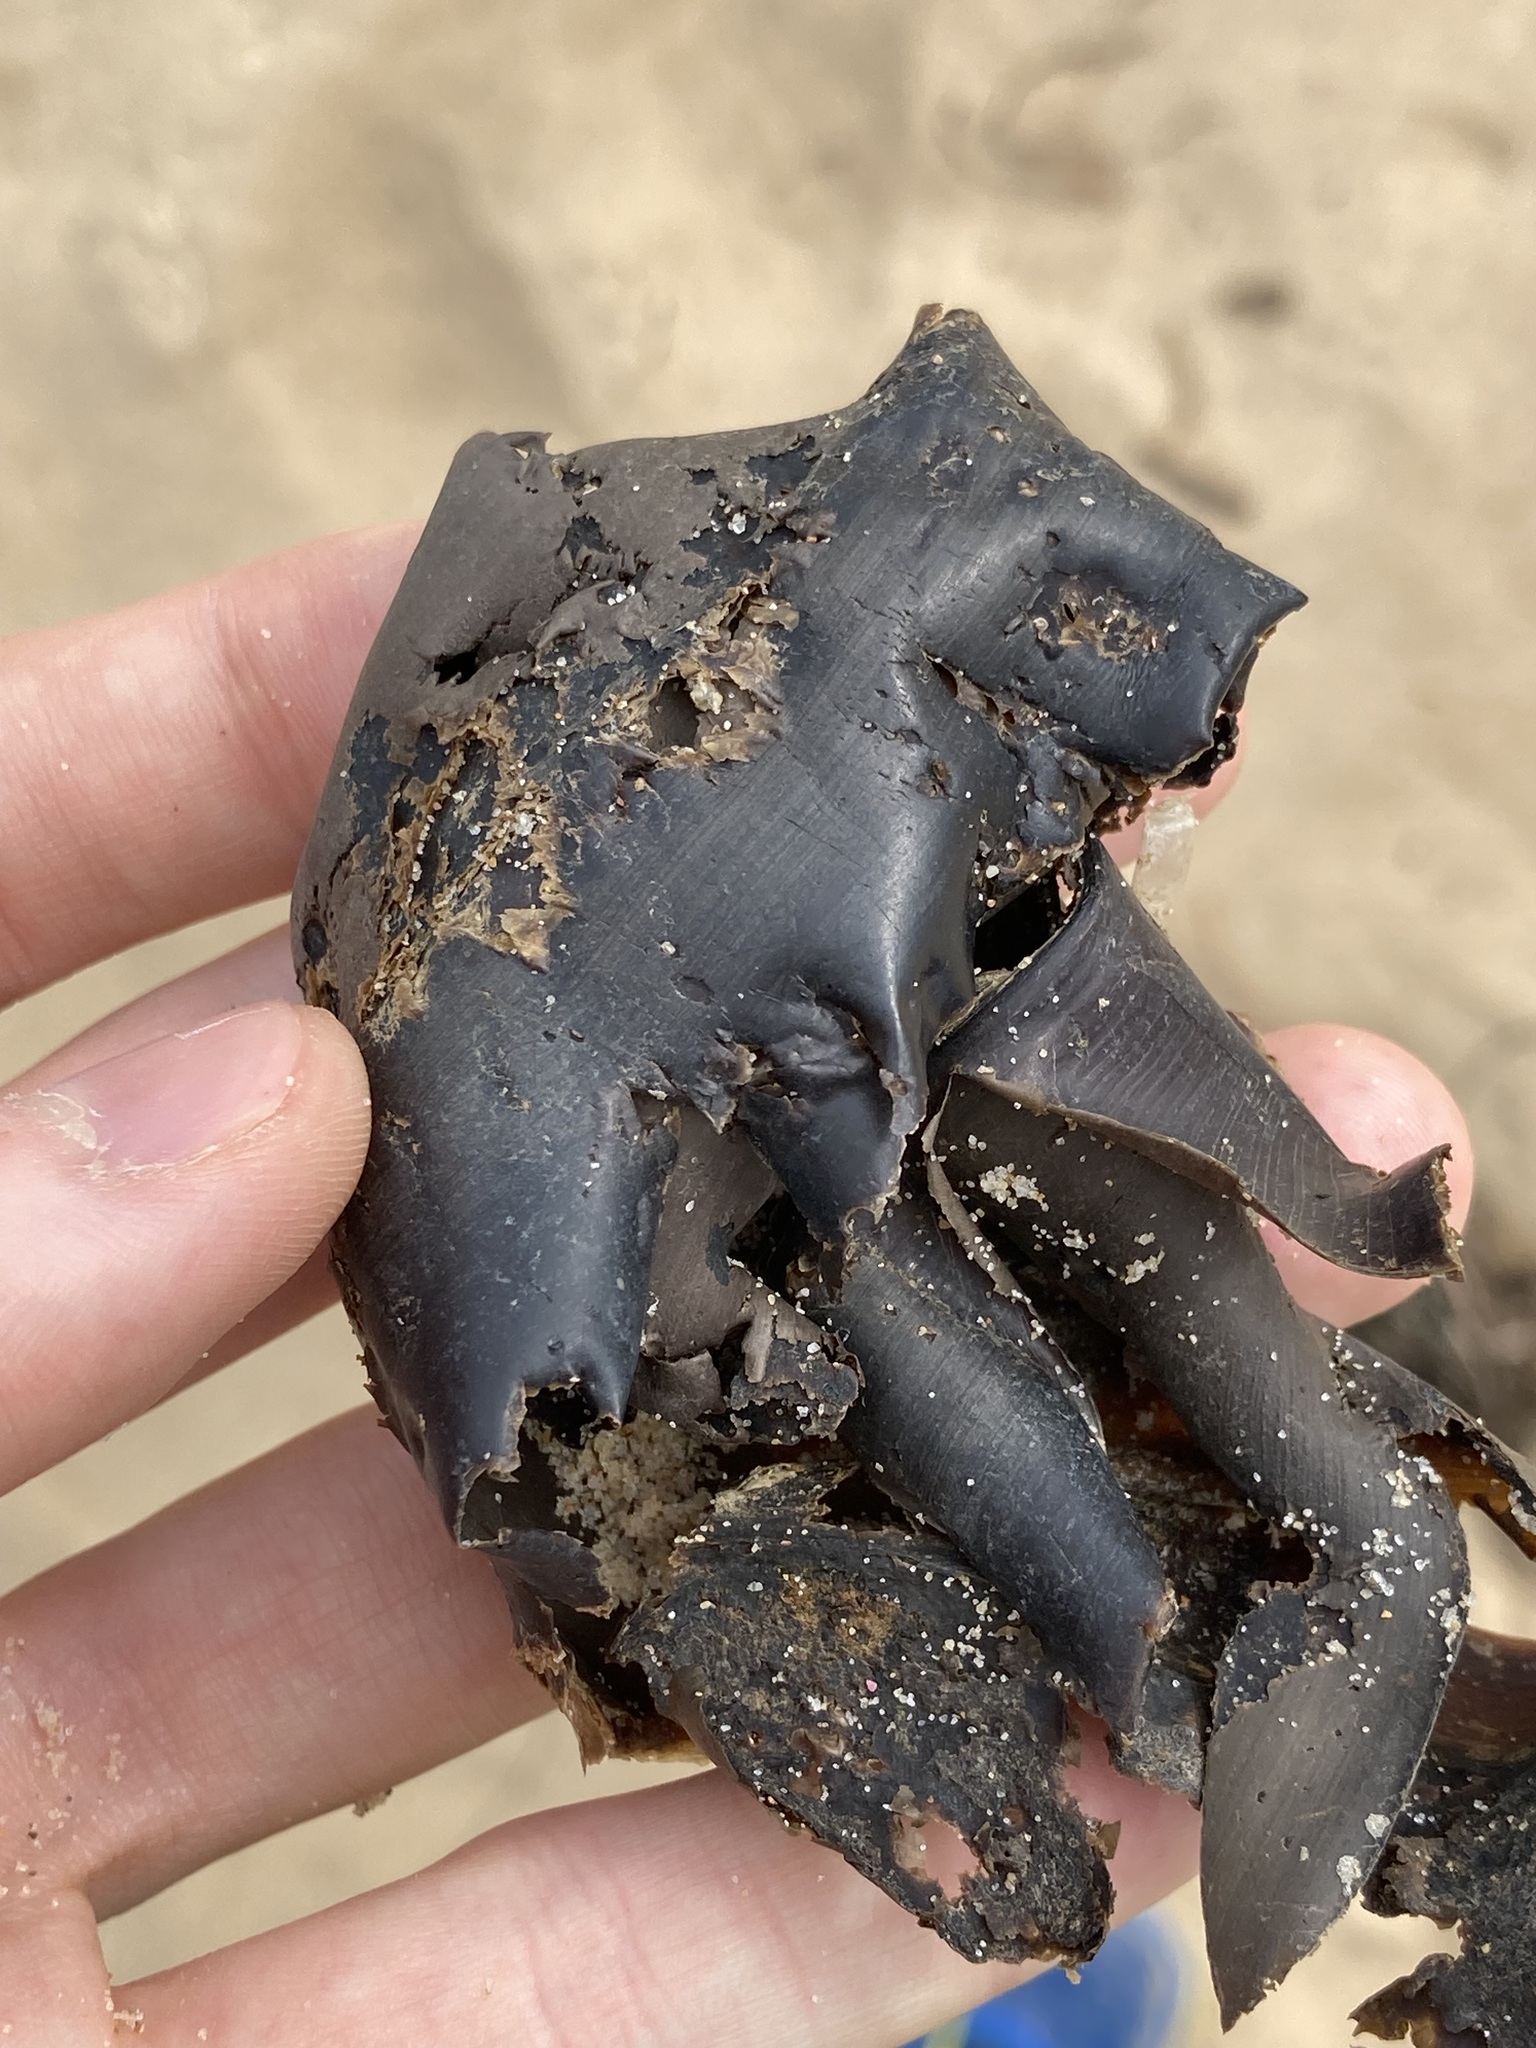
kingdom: Animalia
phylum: Chordata
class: Elasmobranchii
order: Heterodontiformes
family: Heterodontidae
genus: Heterodontus
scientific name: Heterodontus portusjacksoni
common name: Port jackson shark
